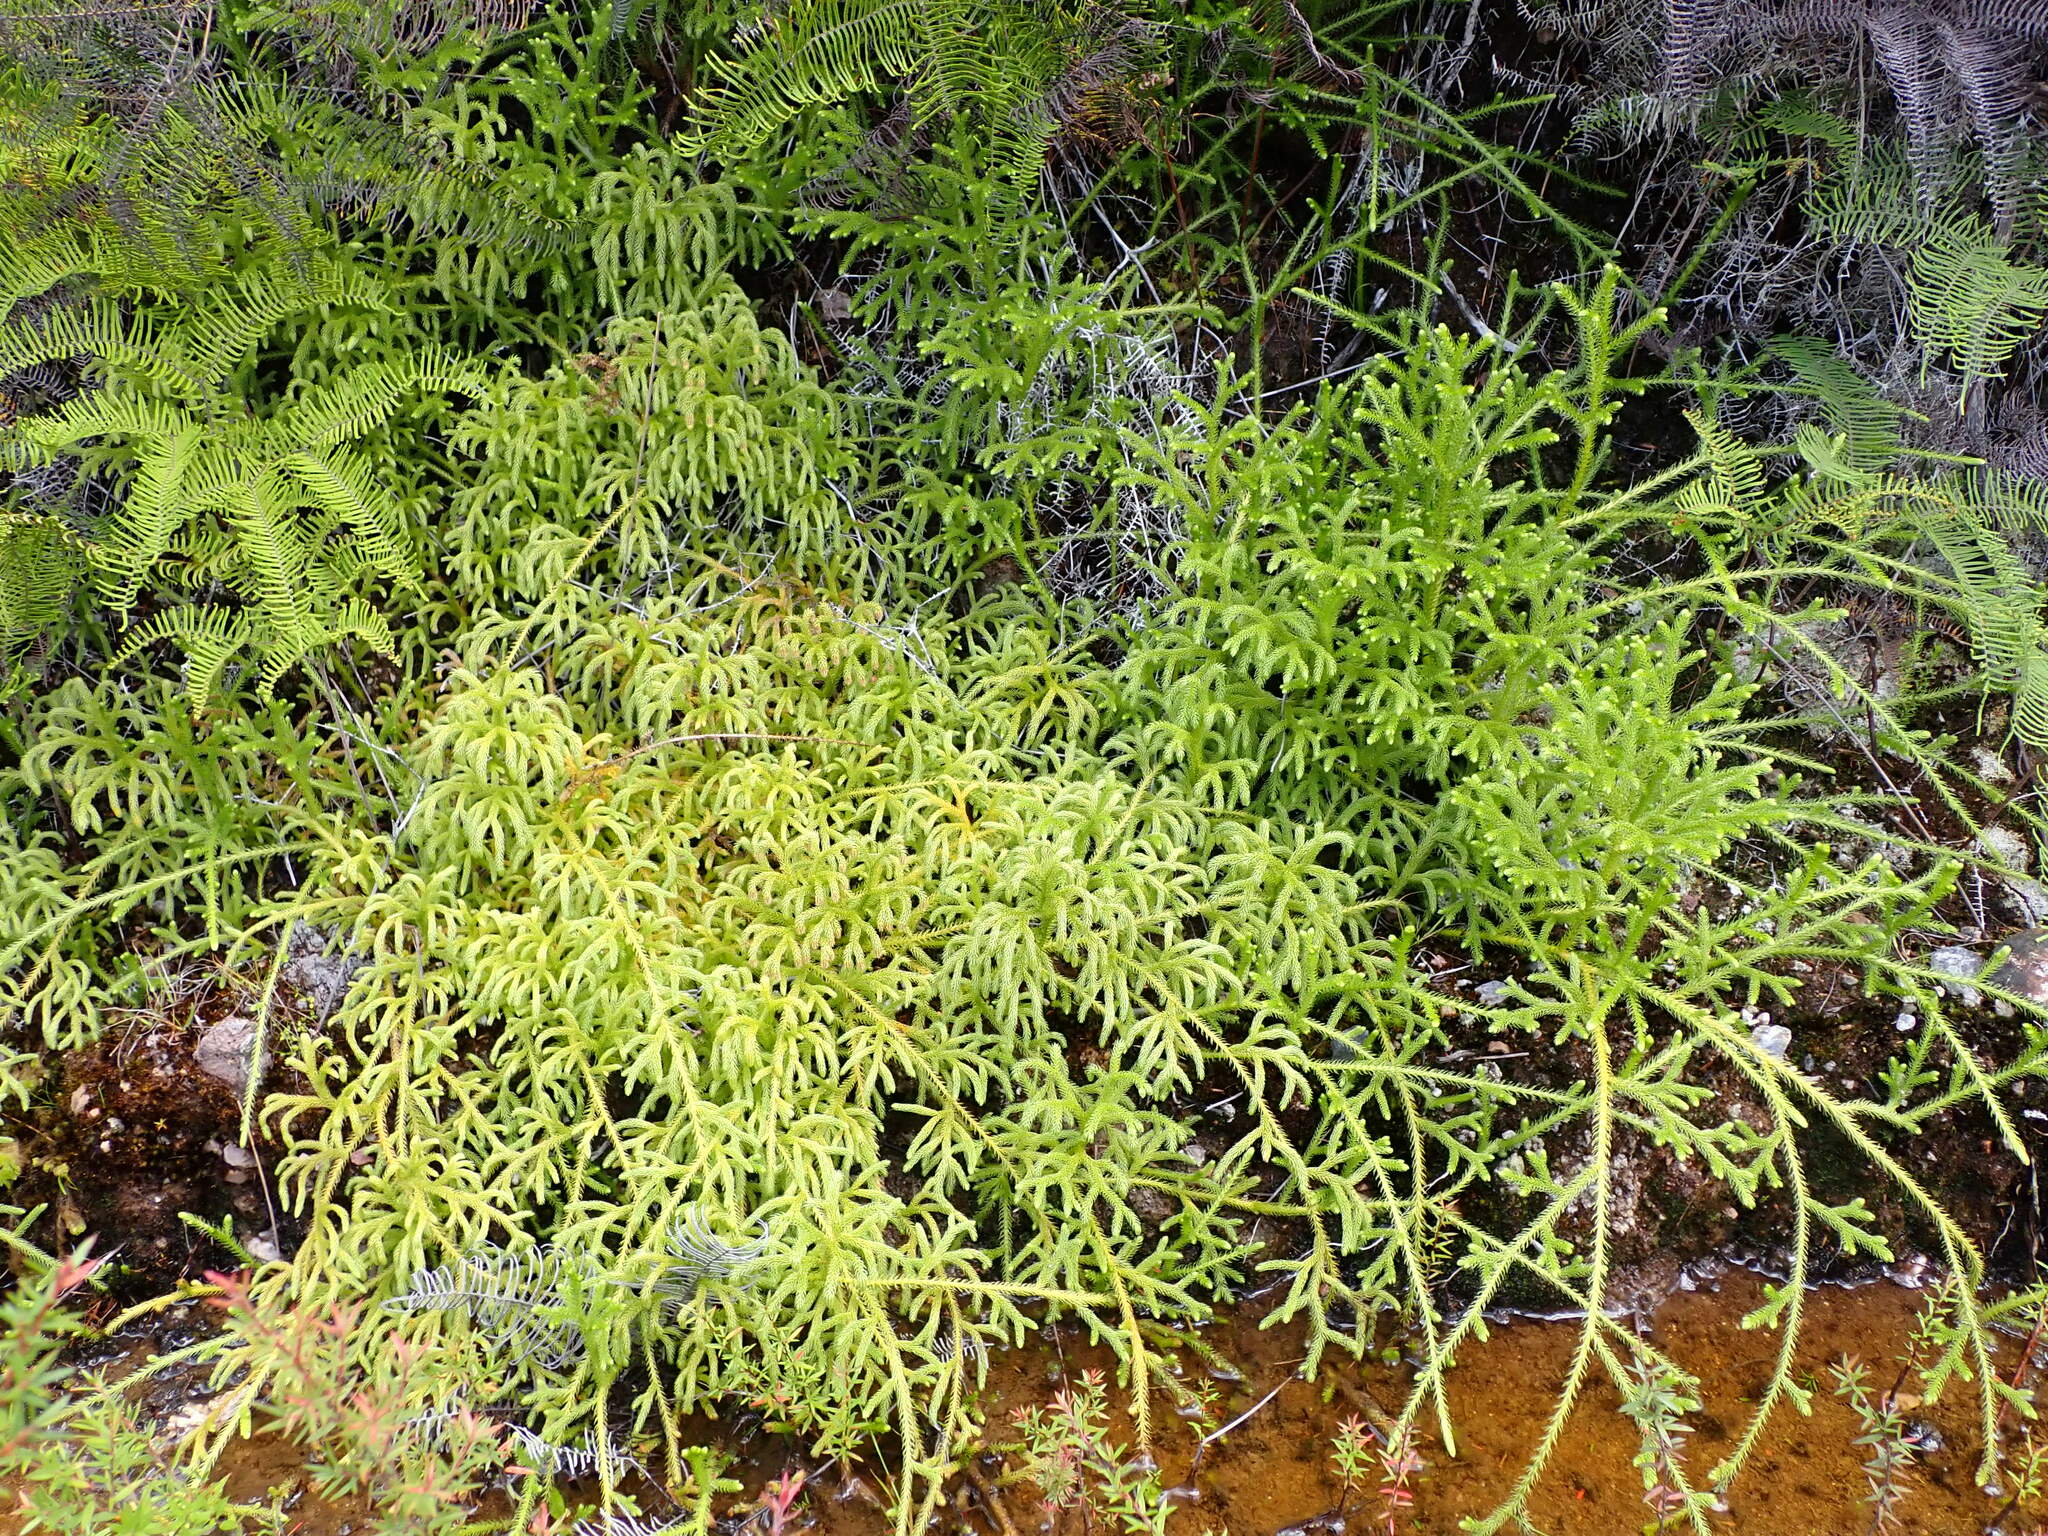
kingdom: Plantae
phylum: Tracheophyta
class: Lycopodiopsida
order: Lycopodiales
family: Lycopodiaceae
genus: Palhinhaea
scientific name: Palhinhaea cernua
